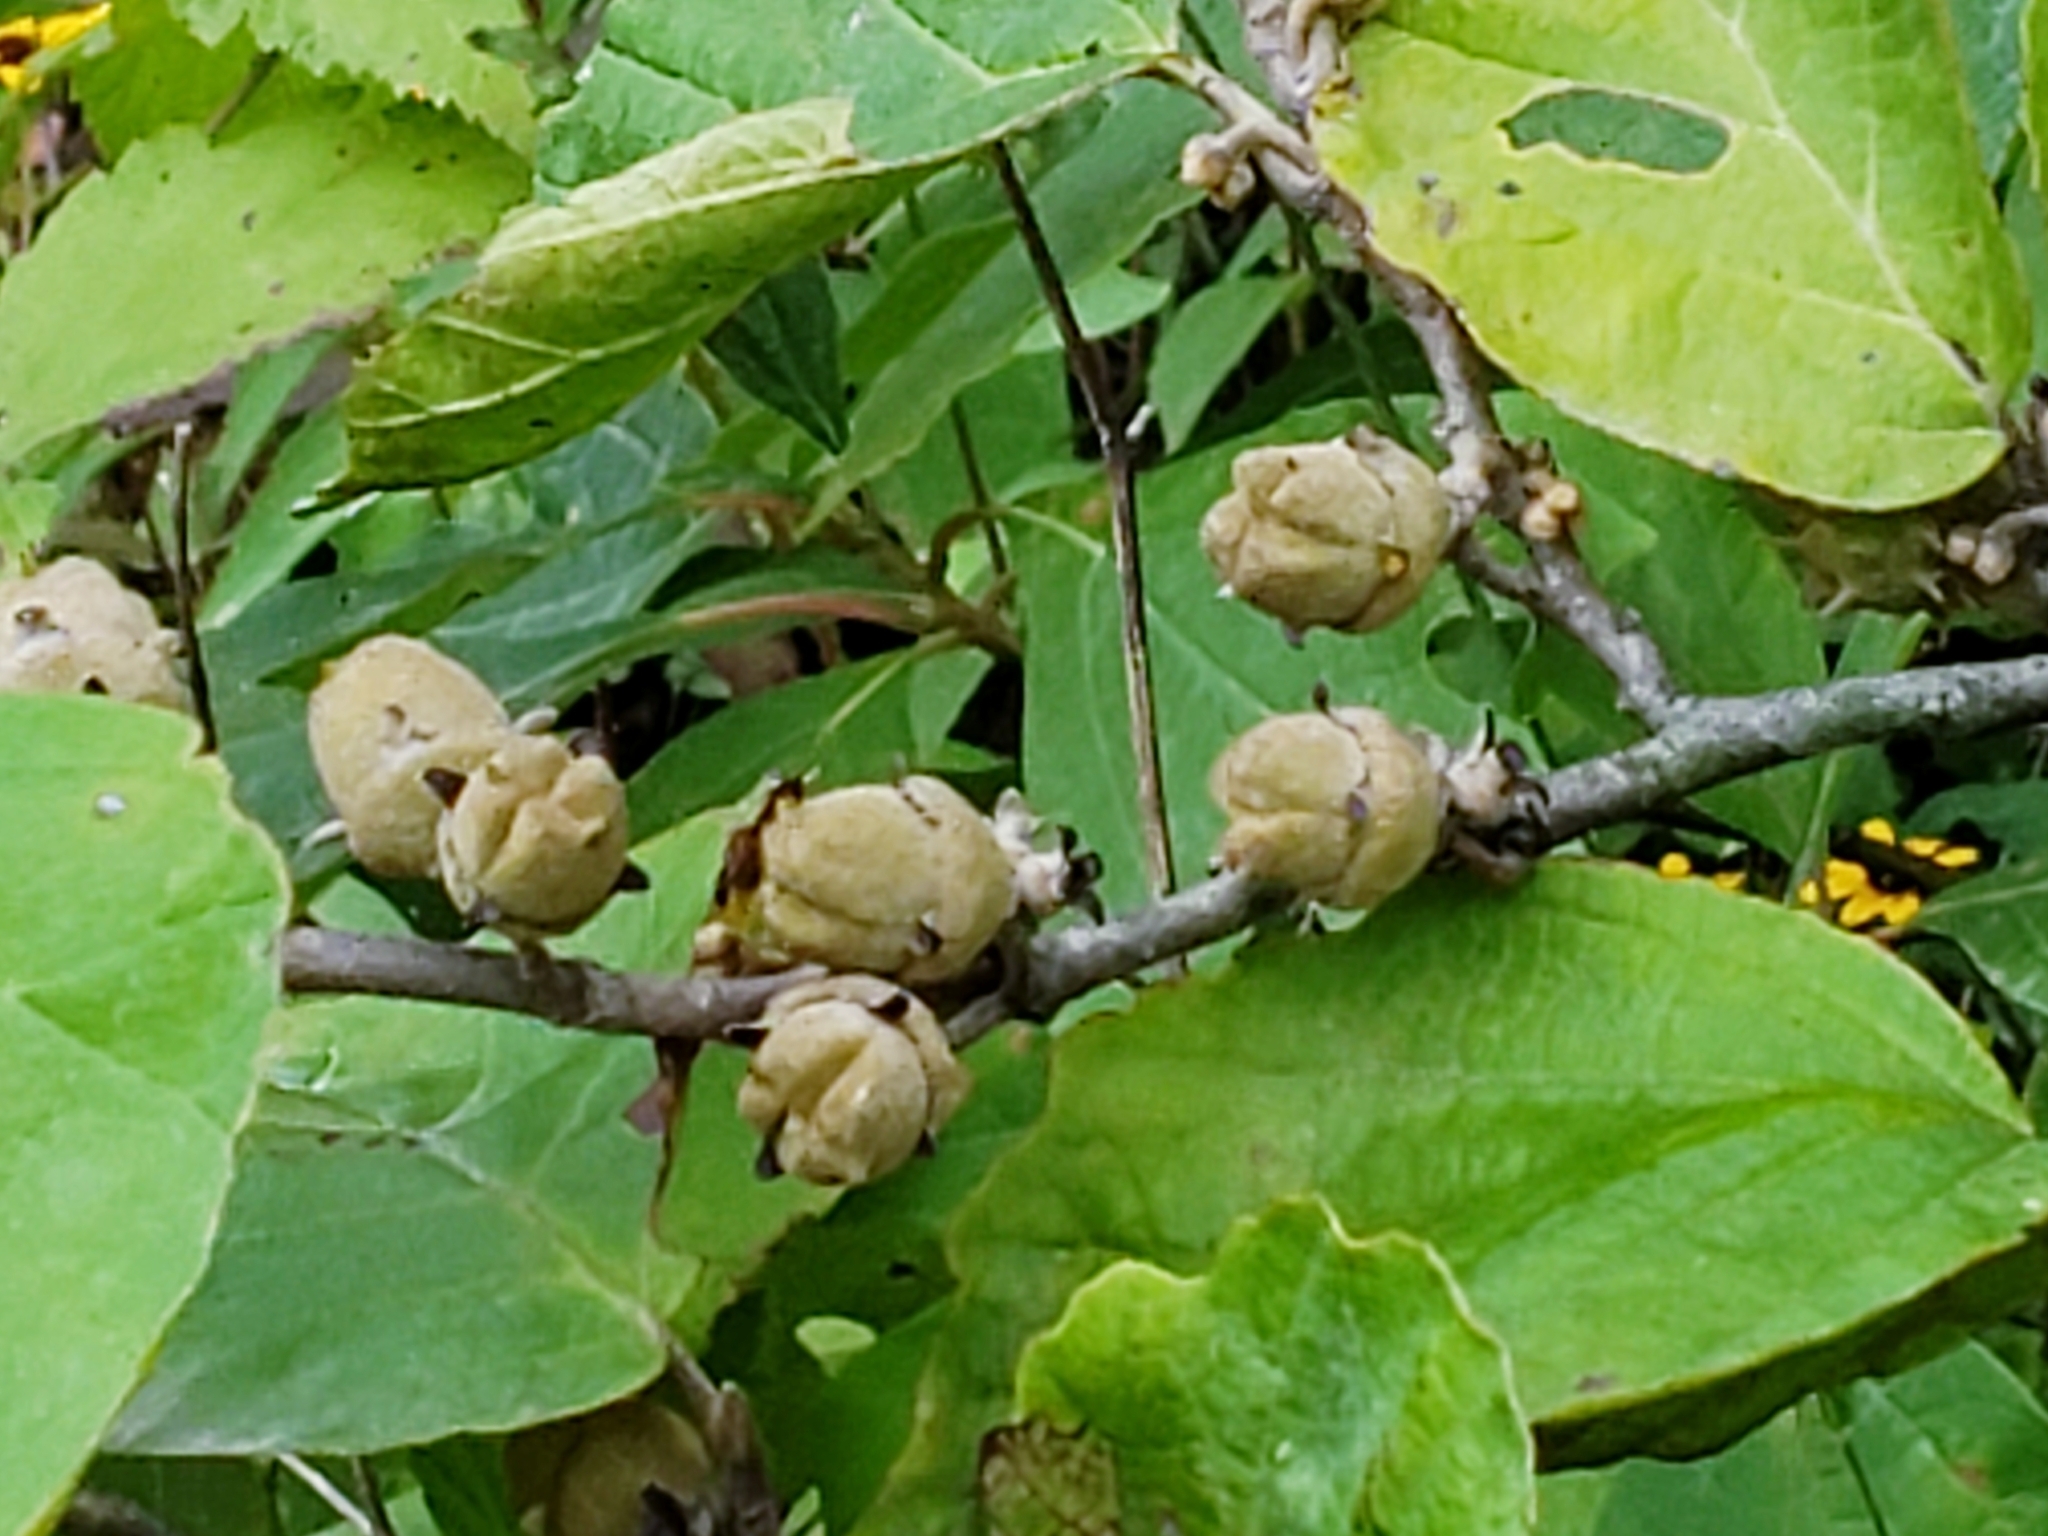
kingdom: Plantae
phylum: Tracheophyta
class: Magnoliopsida
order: Saxifragales
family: Hamamelidaceae
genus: Hamamelis
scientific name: Hamamelis virginiana
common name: Witch-hazel
